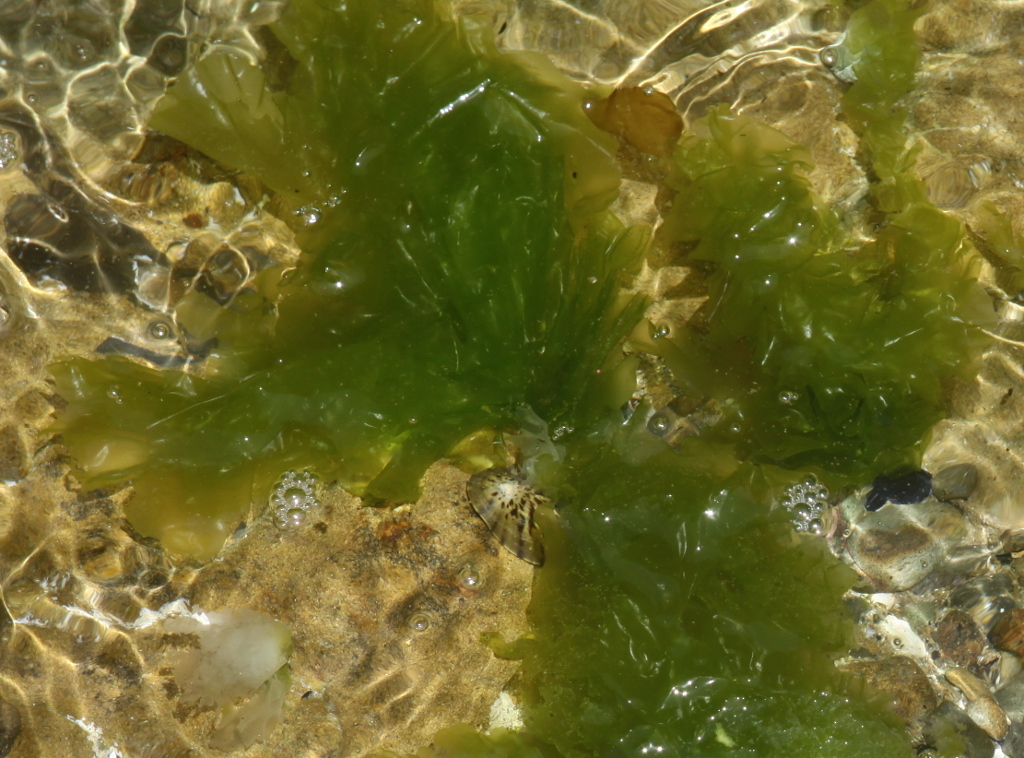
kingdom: Plantae
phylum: Chlorophyta
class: Ulvophyceae
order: Ulvales
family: Ulvaceae
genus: Ulva
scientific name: Ulva
